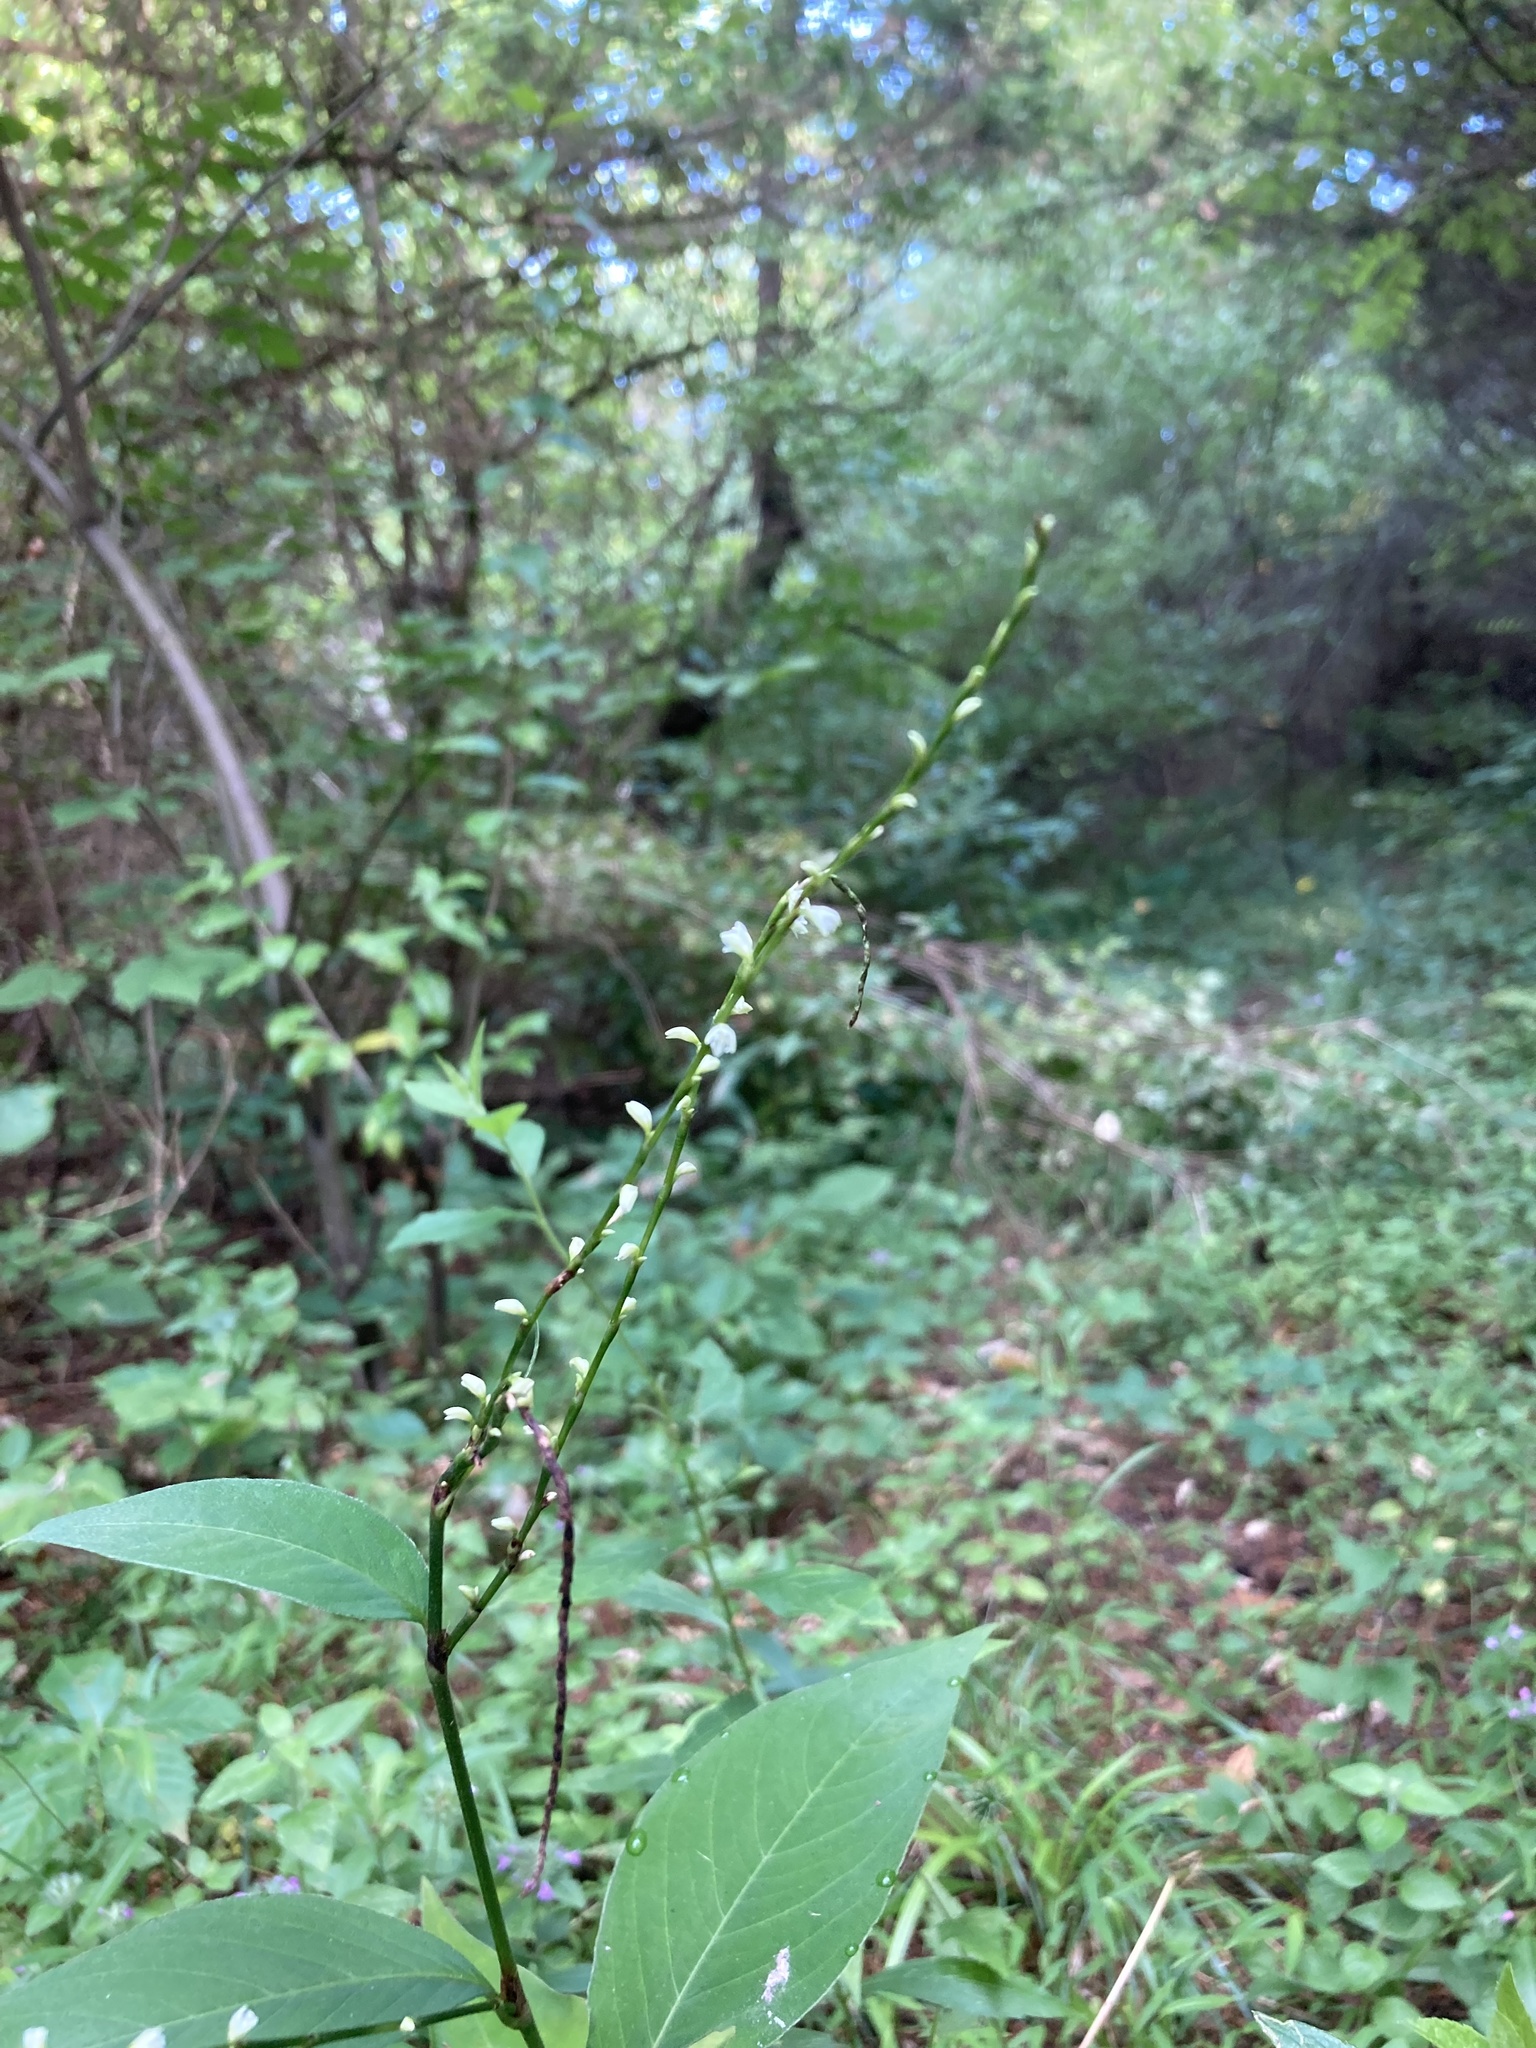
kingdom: Plantae
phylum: Tracheophyta
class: Magnoliopsida
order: Caryophyllales
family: Polygonaceae
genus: Persicaria
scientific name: Persicaria virginiana
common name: Jumpseed
